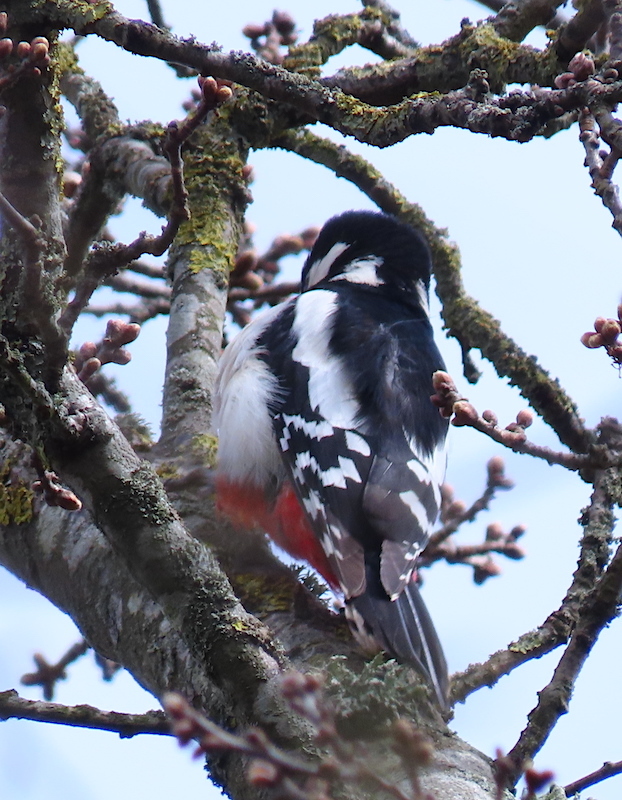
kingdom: Animalia
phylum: Chordata
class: Aves
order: Piciformes
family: Picidae
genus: Dendrocopos
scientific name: Dendrocopos major
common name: Great spotted woodpecker
